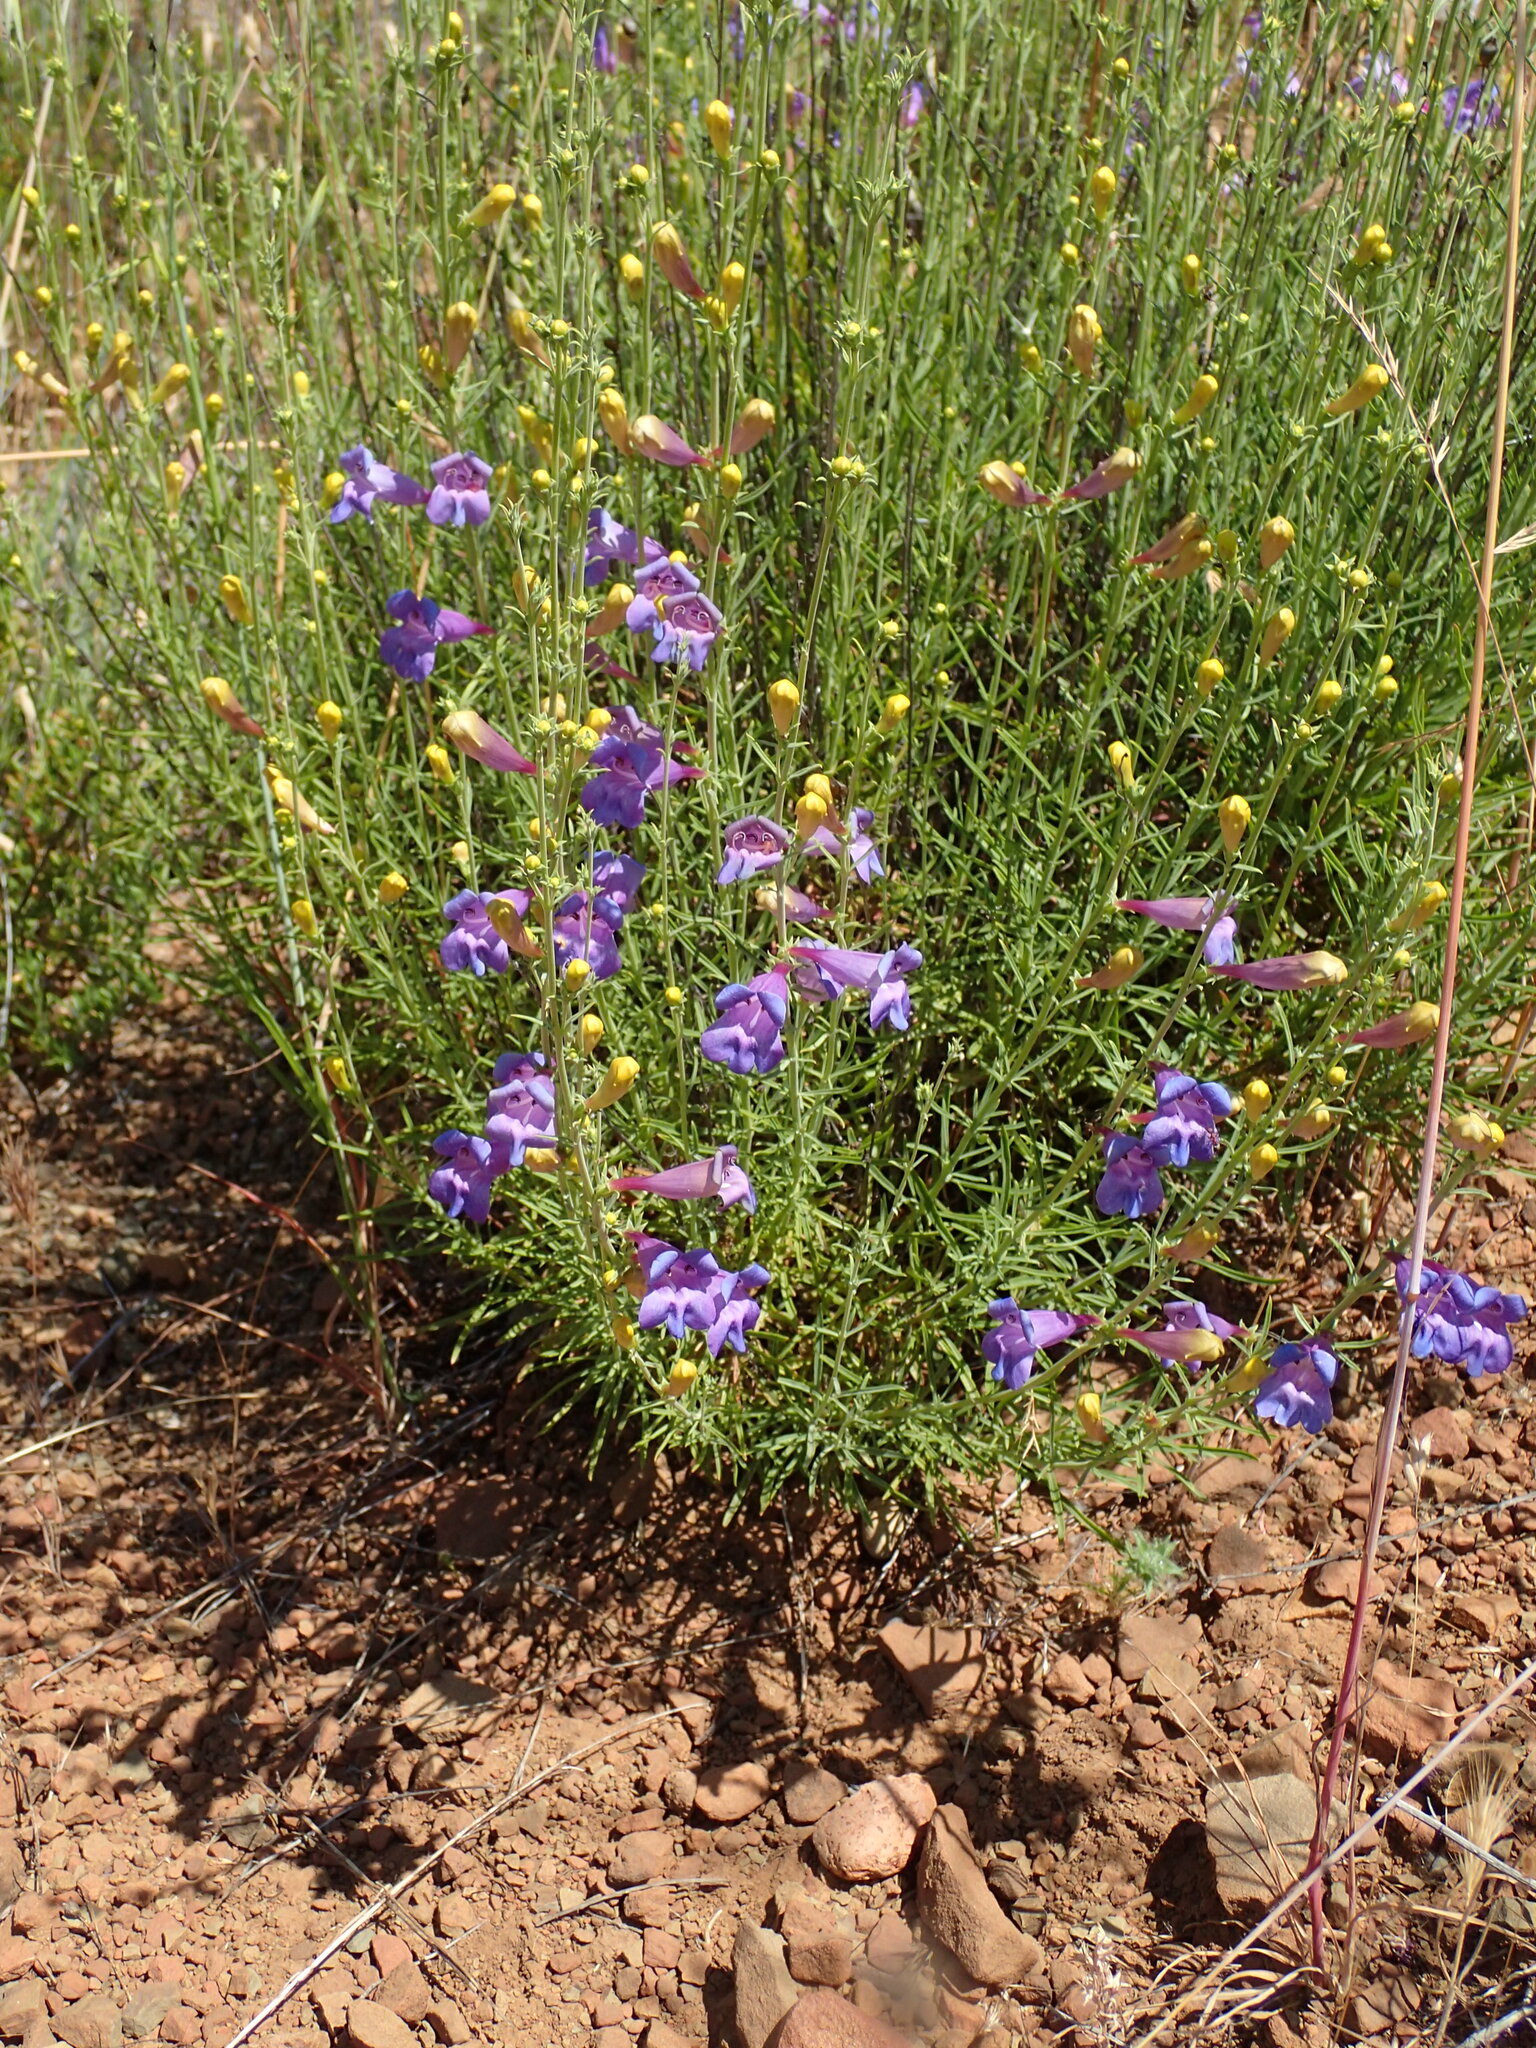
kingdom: Plantae
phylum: Tracheophyta
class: Magnoliopsida
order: Lamiales
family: Plantaginaceae
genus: Penstemon
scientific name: Penstemon heterophyllus
